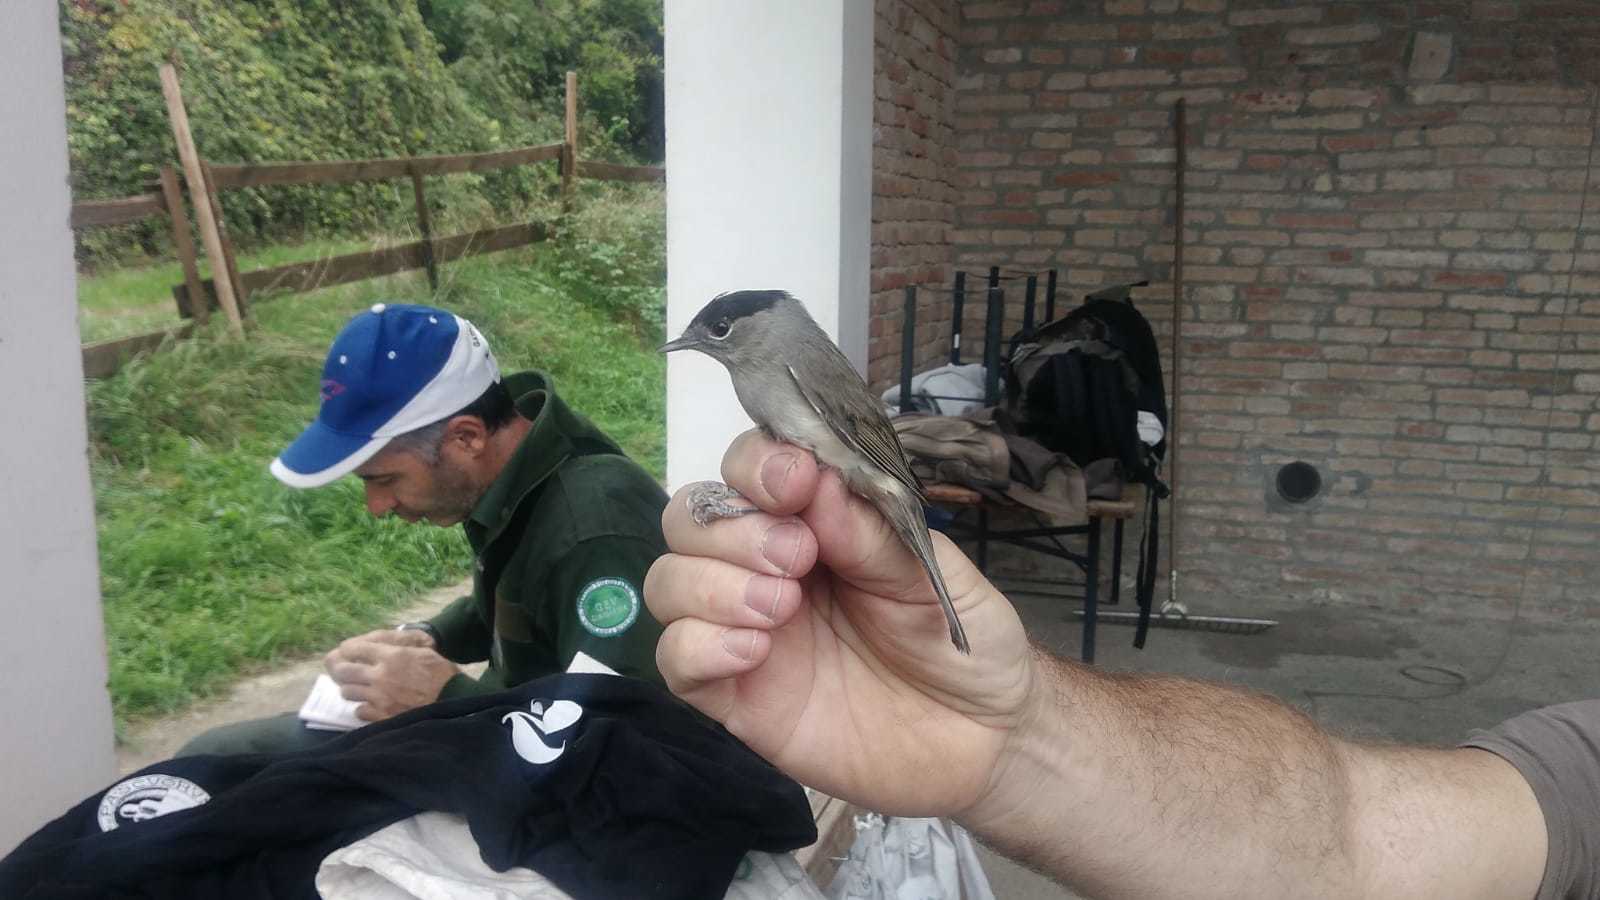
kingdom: Animalia
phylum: Chordata
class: Aves
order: Passeriformes
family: Sylviidae
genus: Sylvia
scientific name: Sylvia atricapilla
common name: Eurasian blackcap
